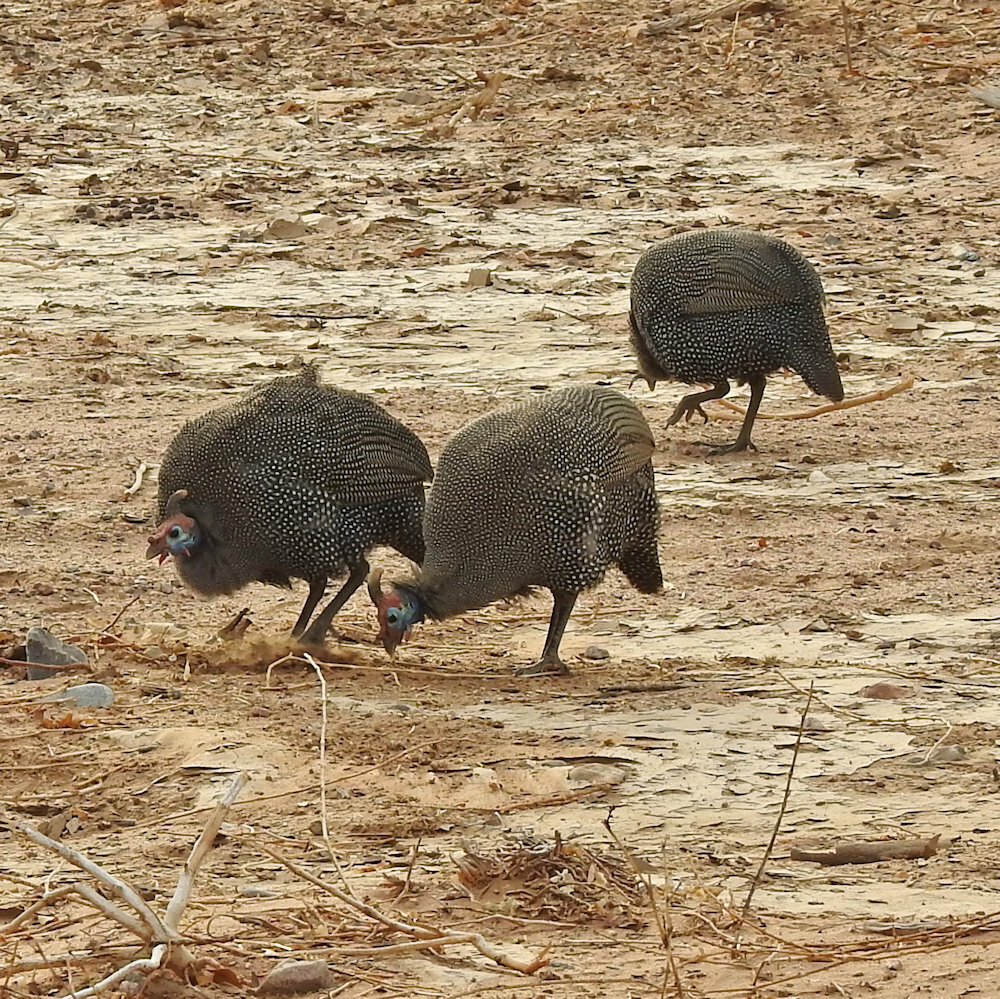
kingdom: Animalia
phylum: Chordata
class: Aves
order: Galliformes
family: Numididae
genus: Numida
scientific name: Numida meleagris
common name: Helmeted guineafowl
